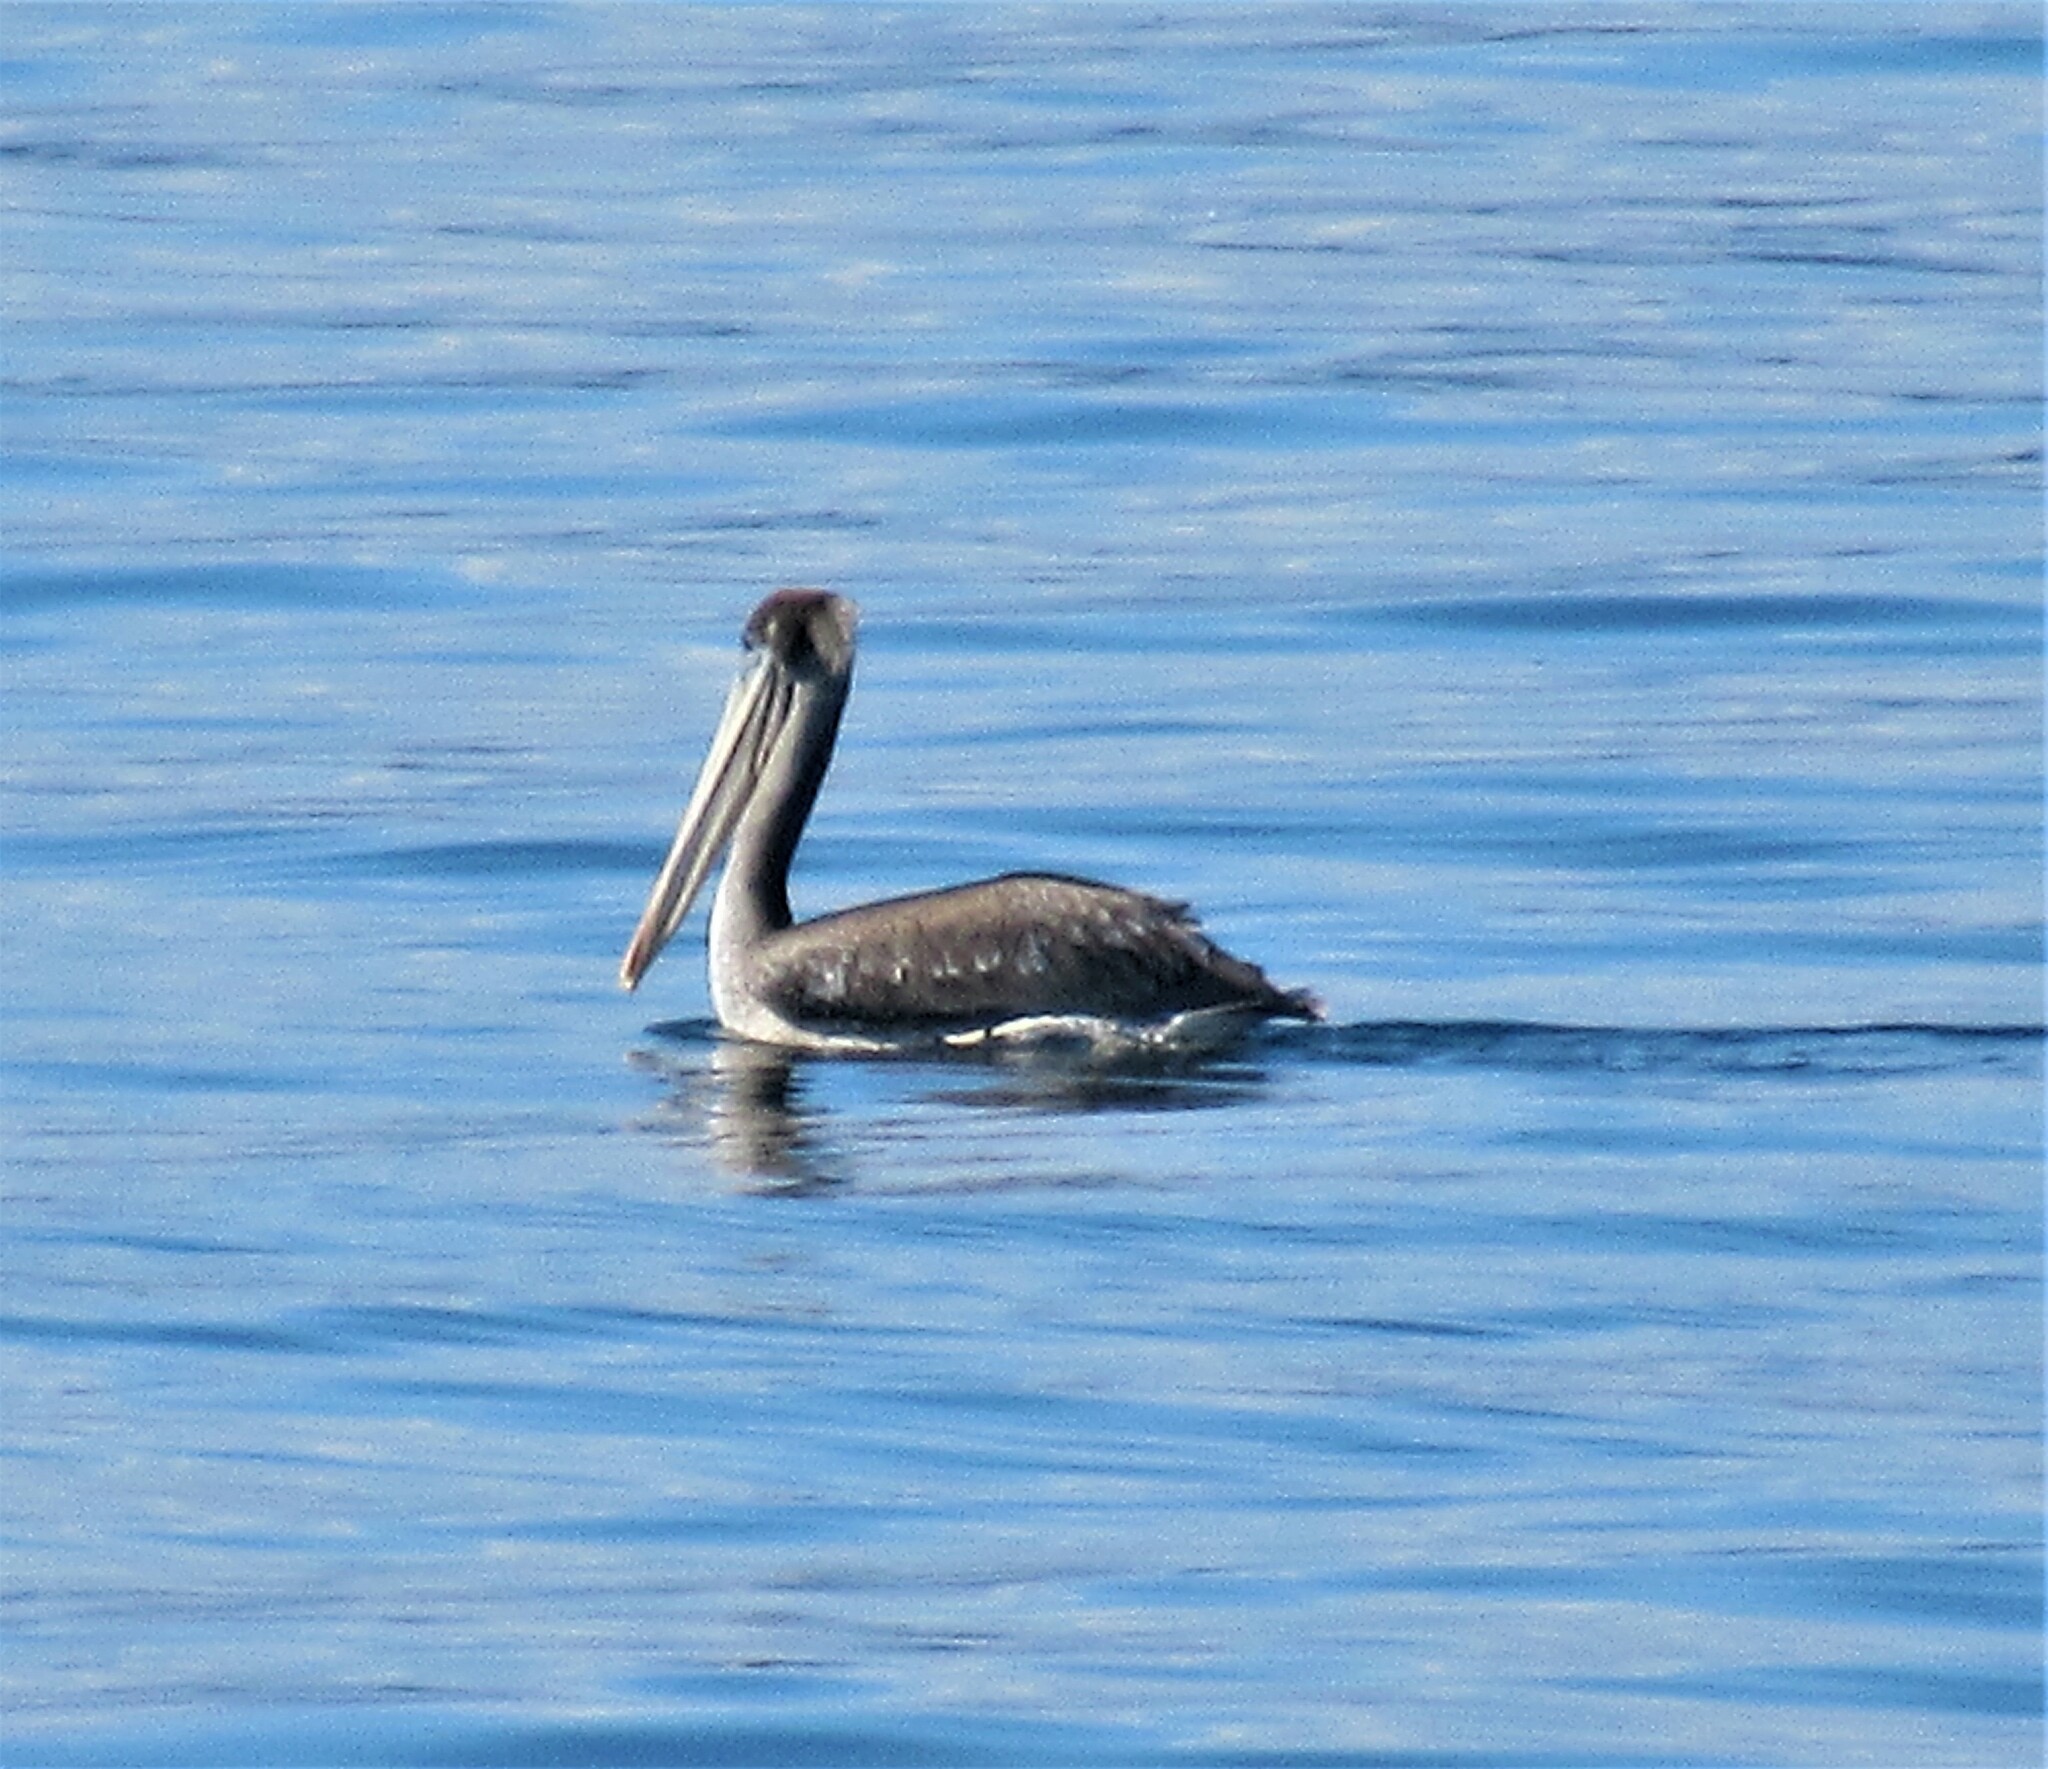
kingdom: Animalia
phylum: Chordata
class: Aves
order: Pelecaniformes
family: Pelecanidae
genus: Pelecanus
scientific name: Pelecanus occidentalis
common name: Brown pelican
